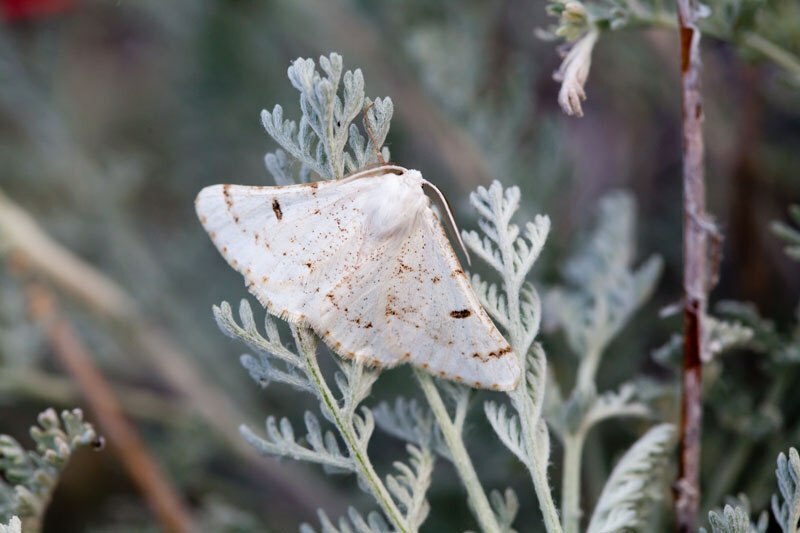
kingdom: Animalia
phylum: Arthropoda
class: Insecta
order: Lepidoptera
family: Geometridae
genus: Dyscia
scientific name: Dyscia malatyana
